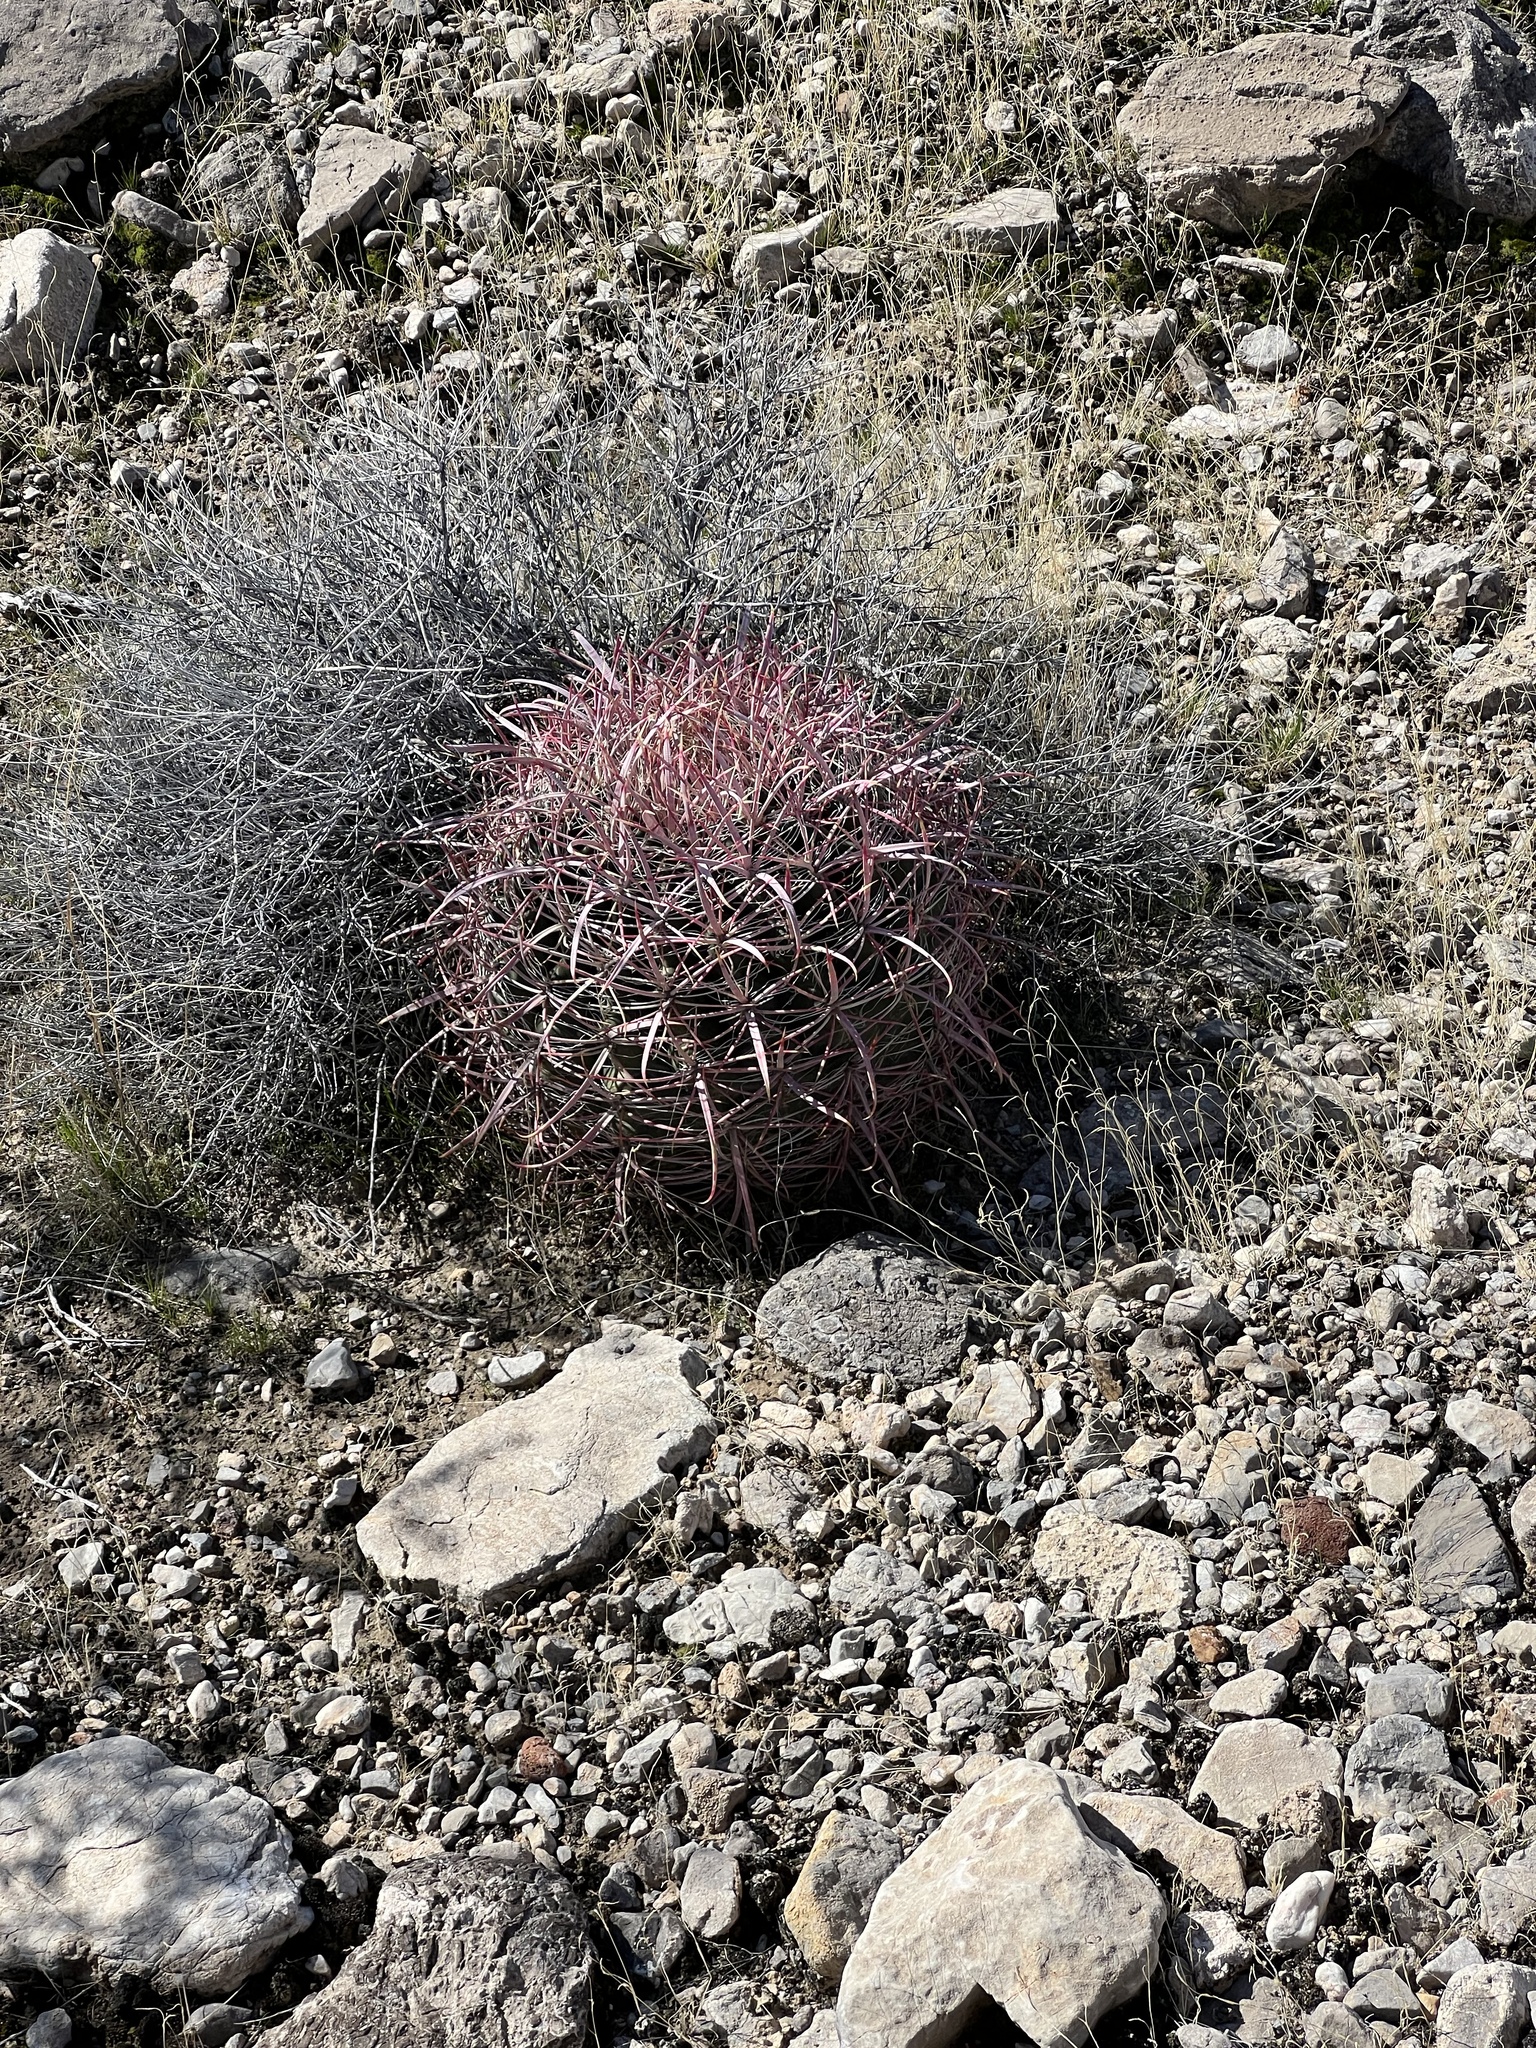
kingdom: Plantae
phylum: Tracheophyta
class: Magnoliopsida
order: Caryophyllales
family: Cactaceae
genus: Ferocactus
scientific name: Ferocactus cylindraceus
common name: California barrel cactus
